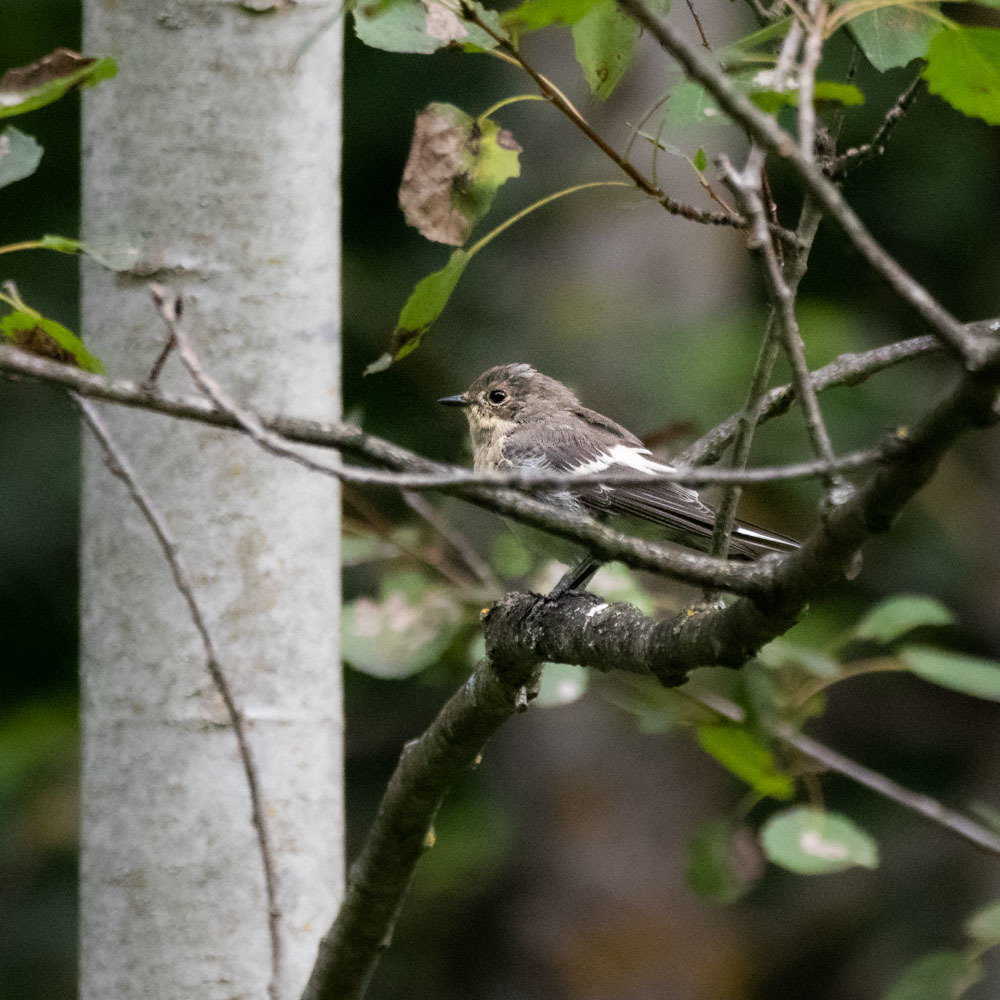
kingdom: Animalia
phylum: Chordata
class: Aves
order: Passeriformes
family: Muscicapidae
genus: Ficedula
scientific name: Ficedula hypoleuca
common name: European pied flycatcher
